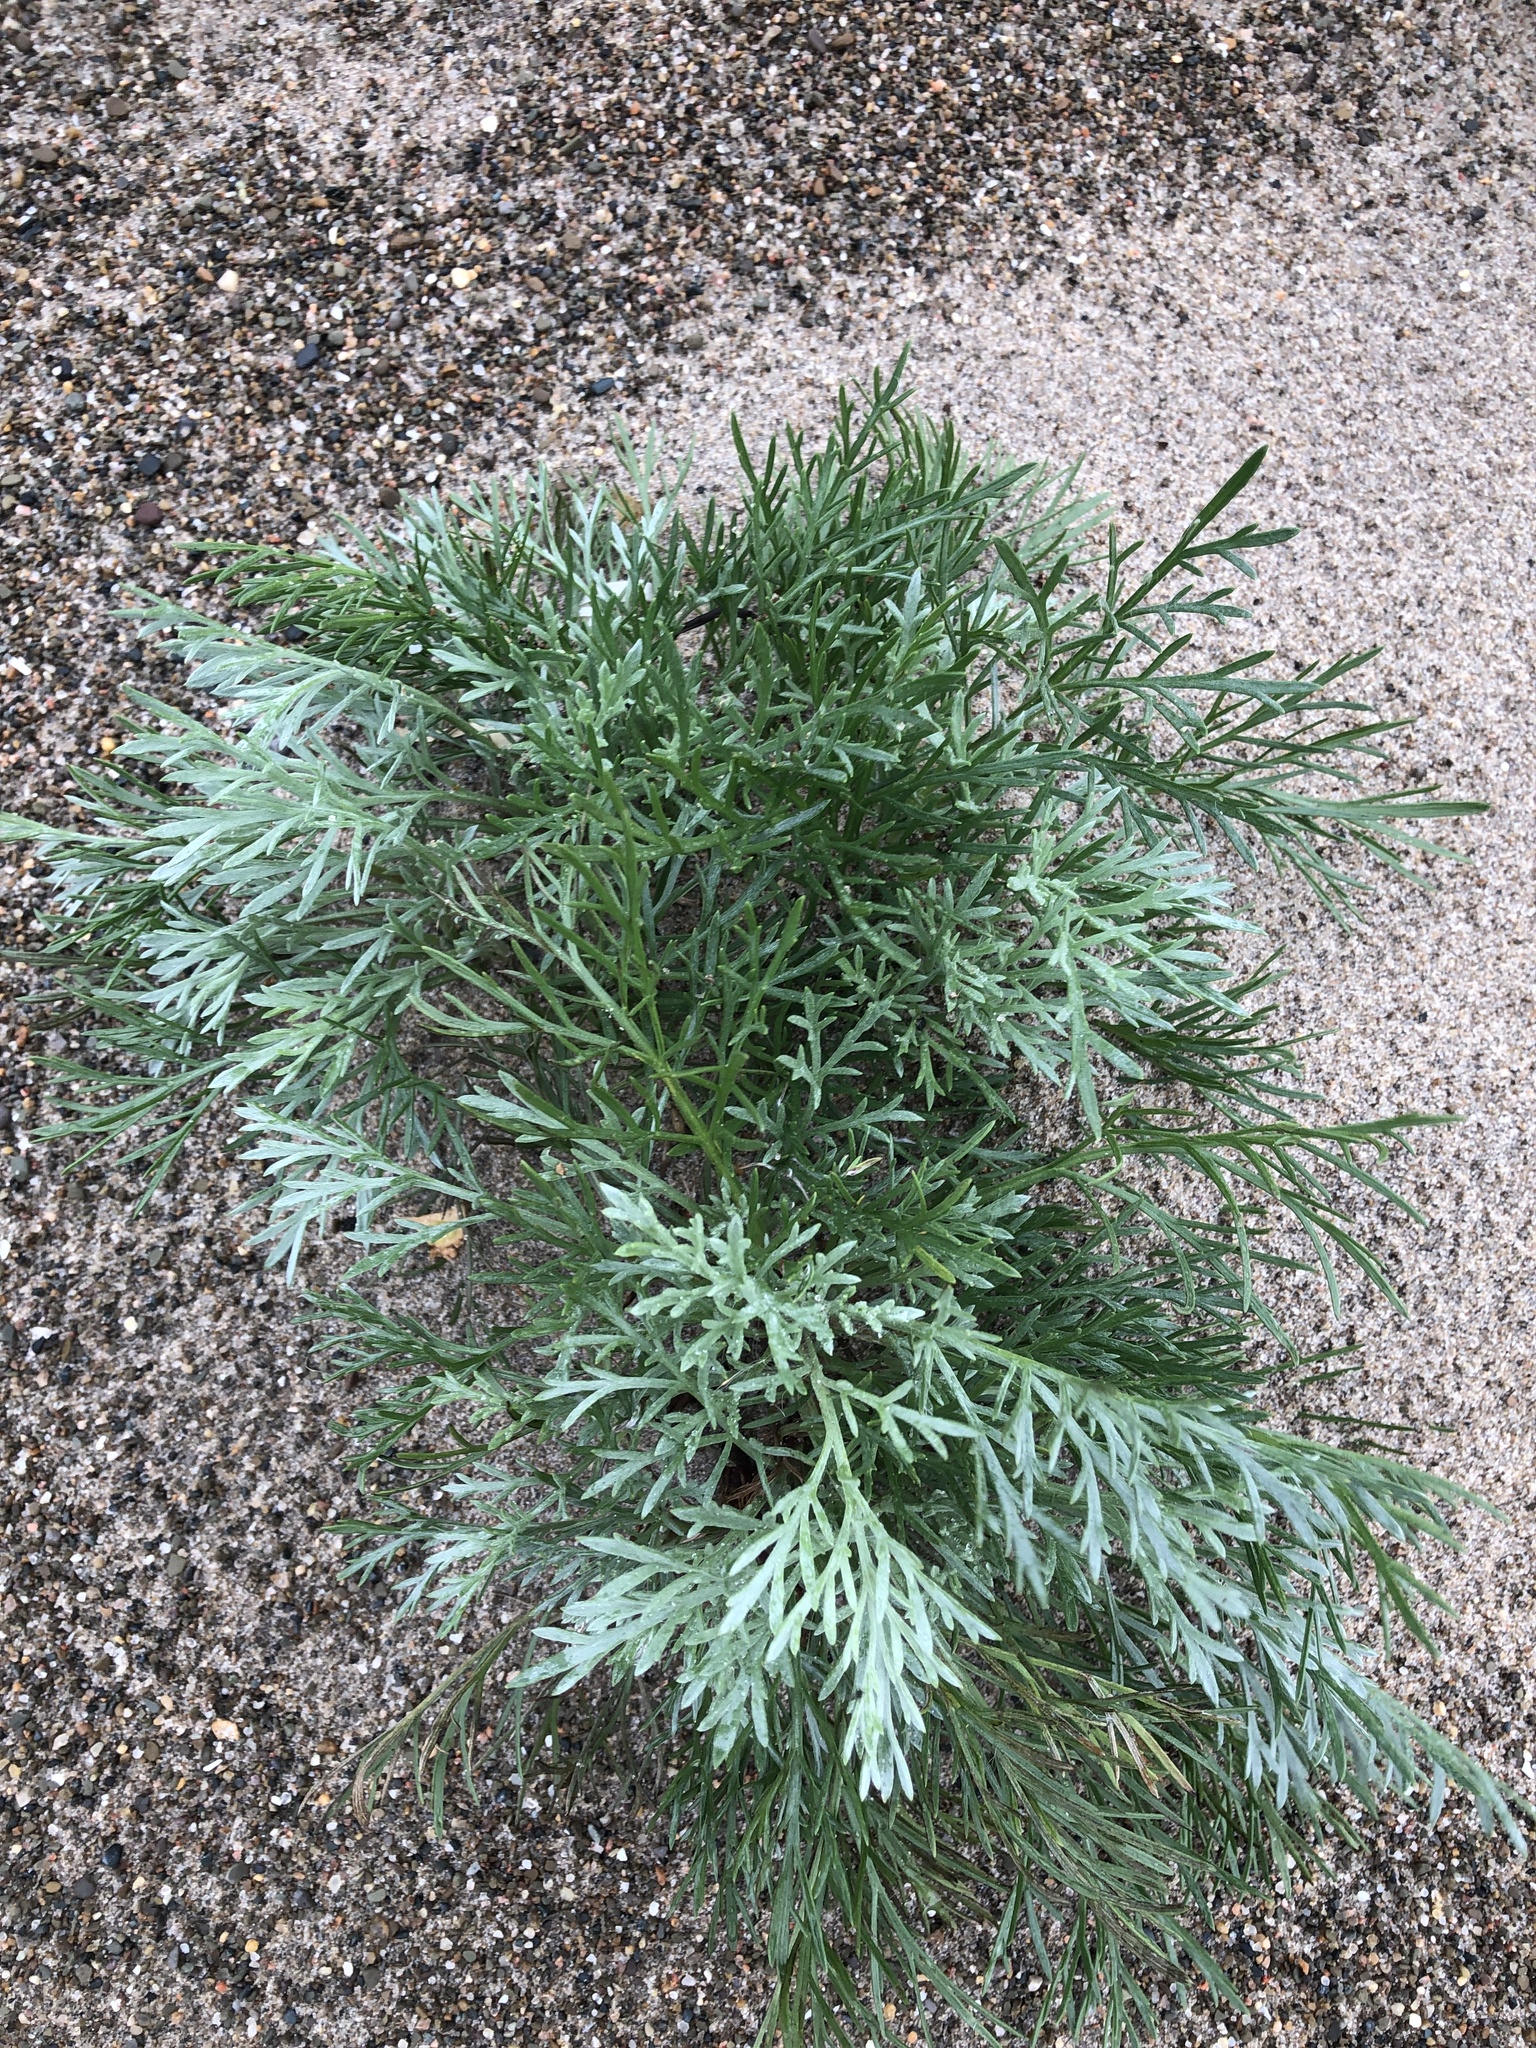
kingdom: Plantae
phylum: Tracheophyta
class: Magnoliopsida
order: Asterales
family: Asteraceae
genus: Artemisia
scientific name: Artemisia campestris
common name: Field wormwood
